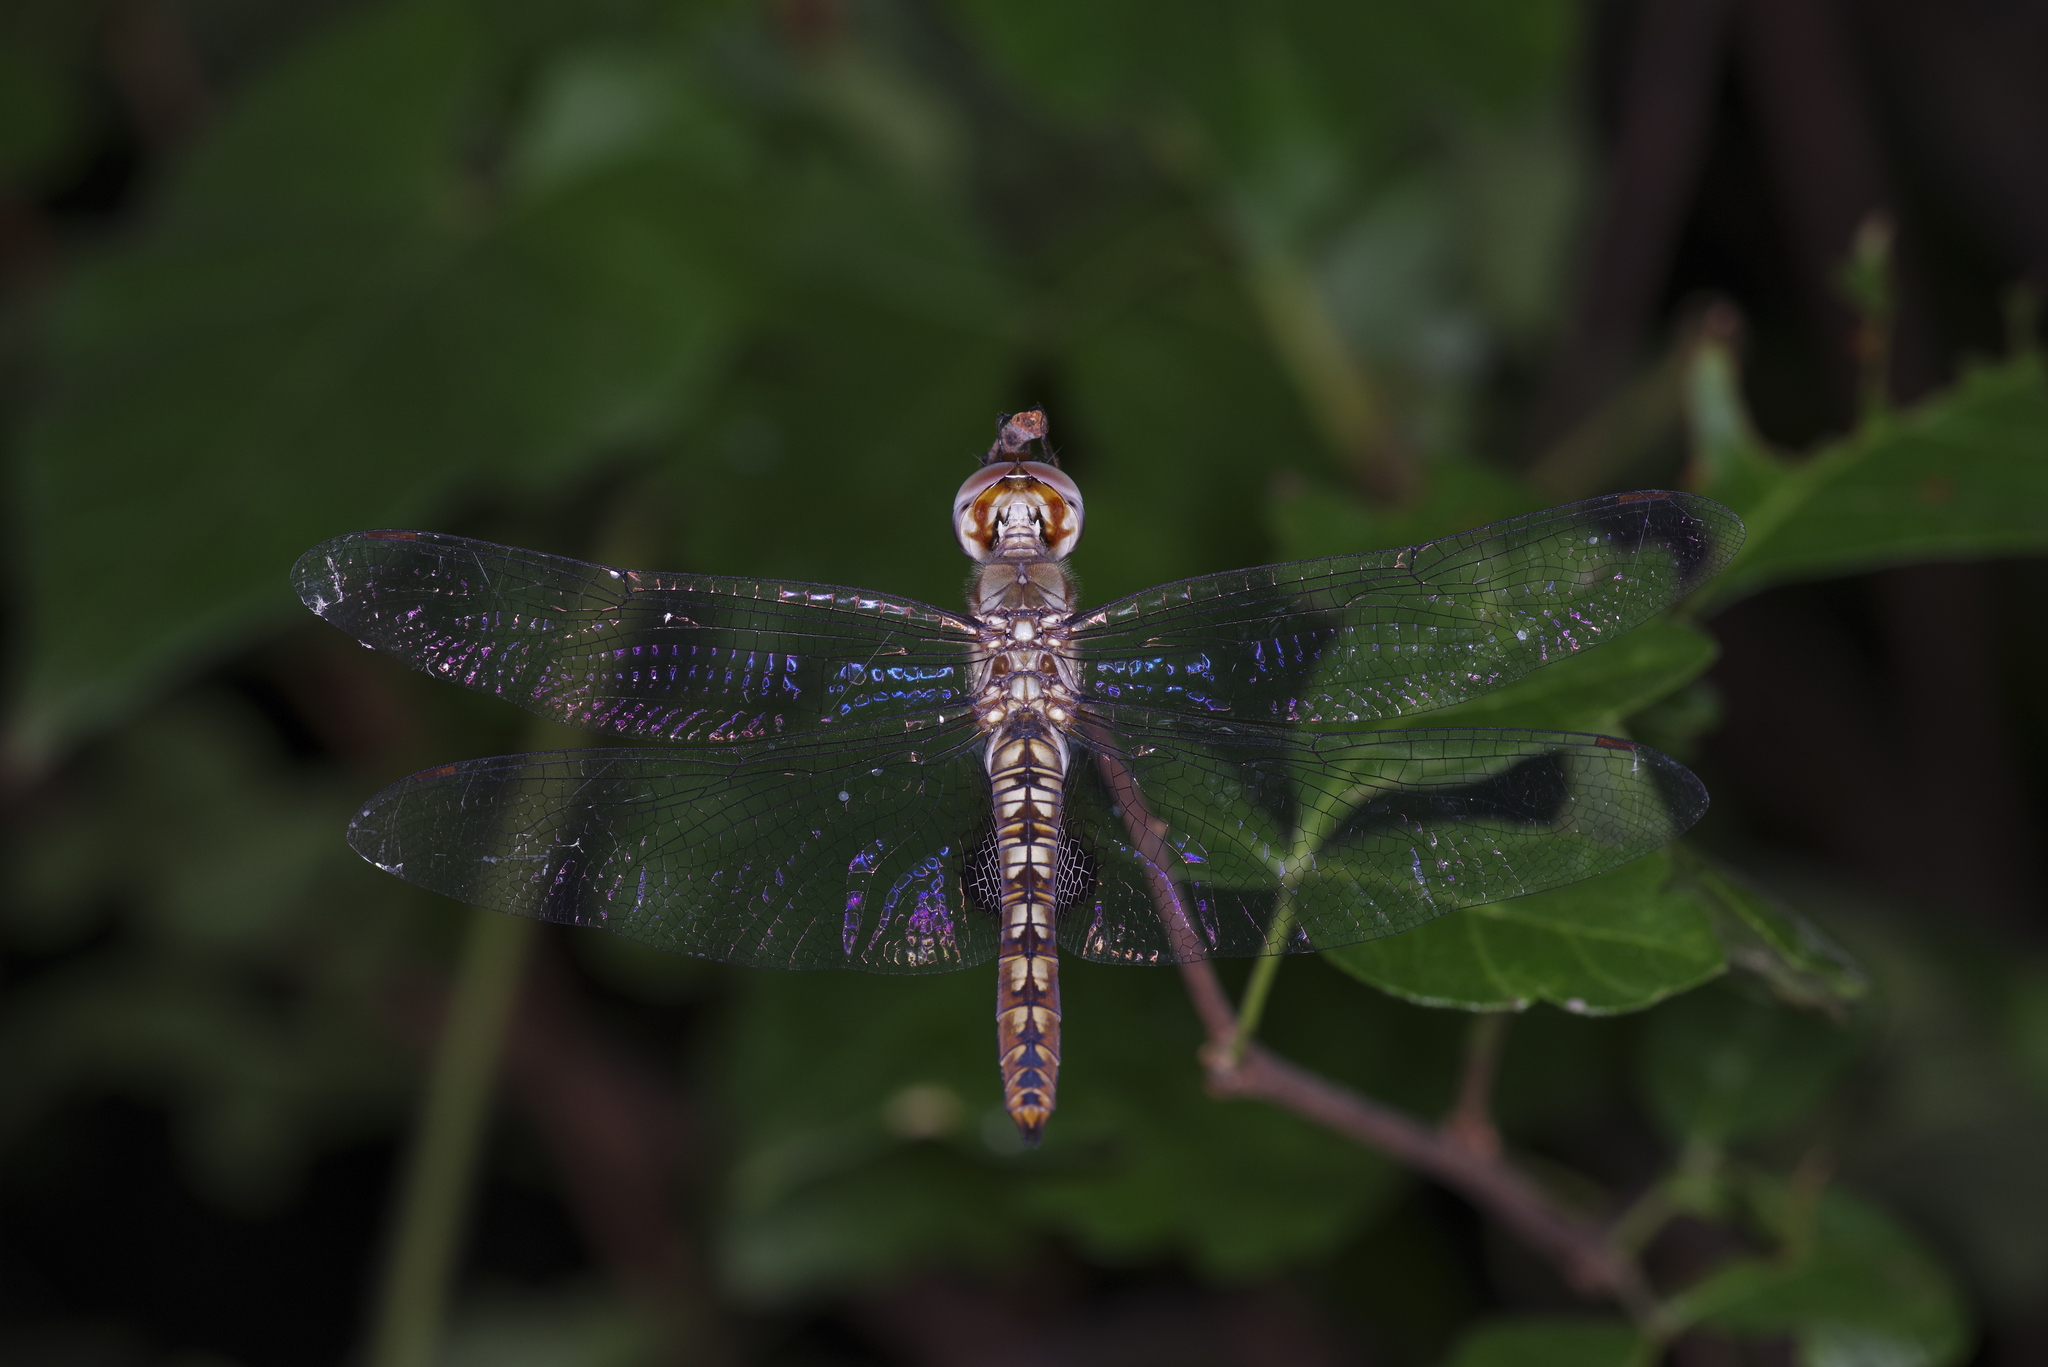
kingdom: Animalia
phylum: Arthropoda
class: Insecta
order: Odonata
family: Libellulidae
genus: Pantala
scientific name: Pantala hymenaea
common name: Spot-winged glider
